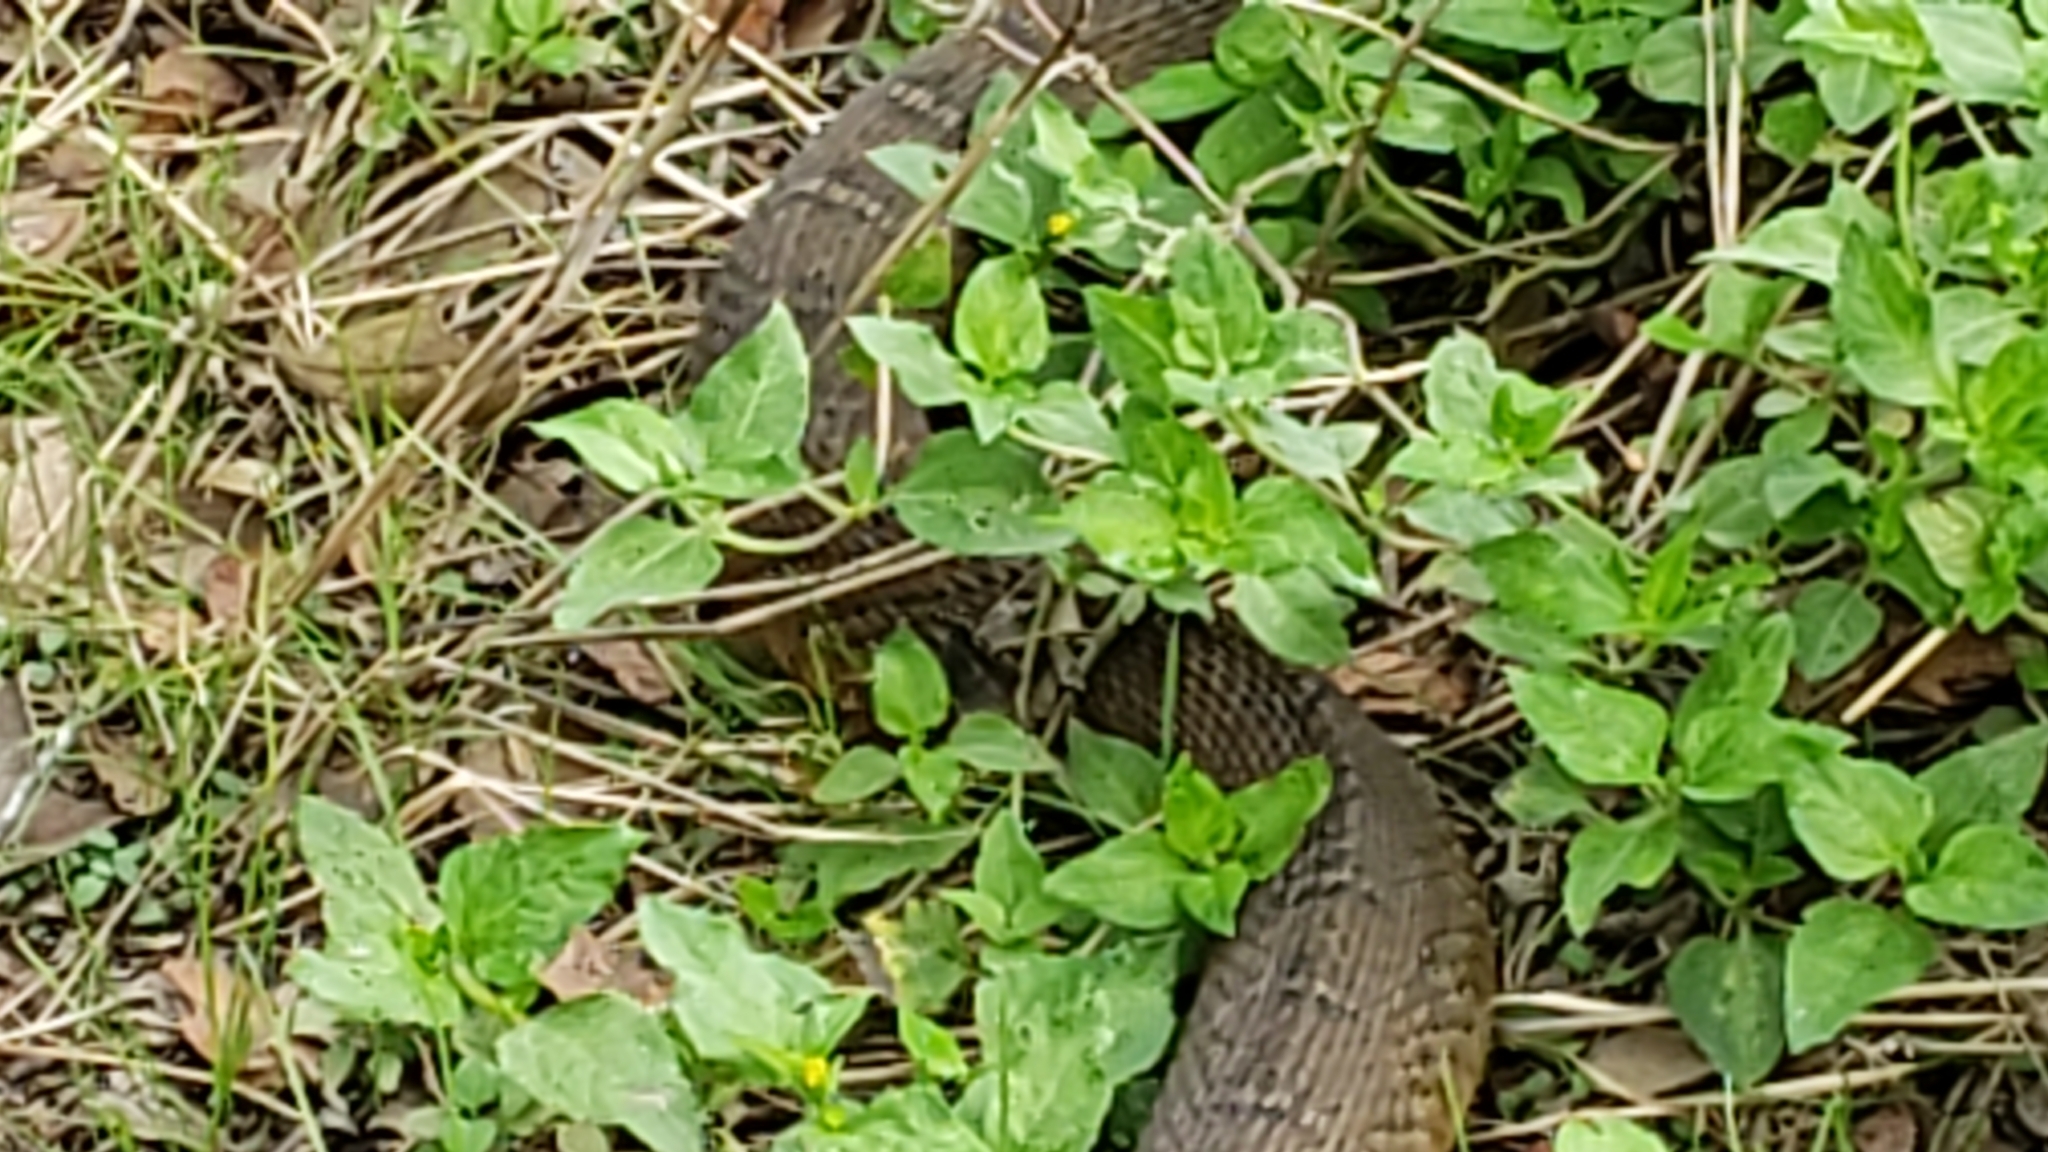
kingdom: Animalia
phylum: Chordata
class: Squamata
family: Colubridae
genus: Nerodia
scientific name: Nerodia erythrogaster
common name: Plainbelly water snake
